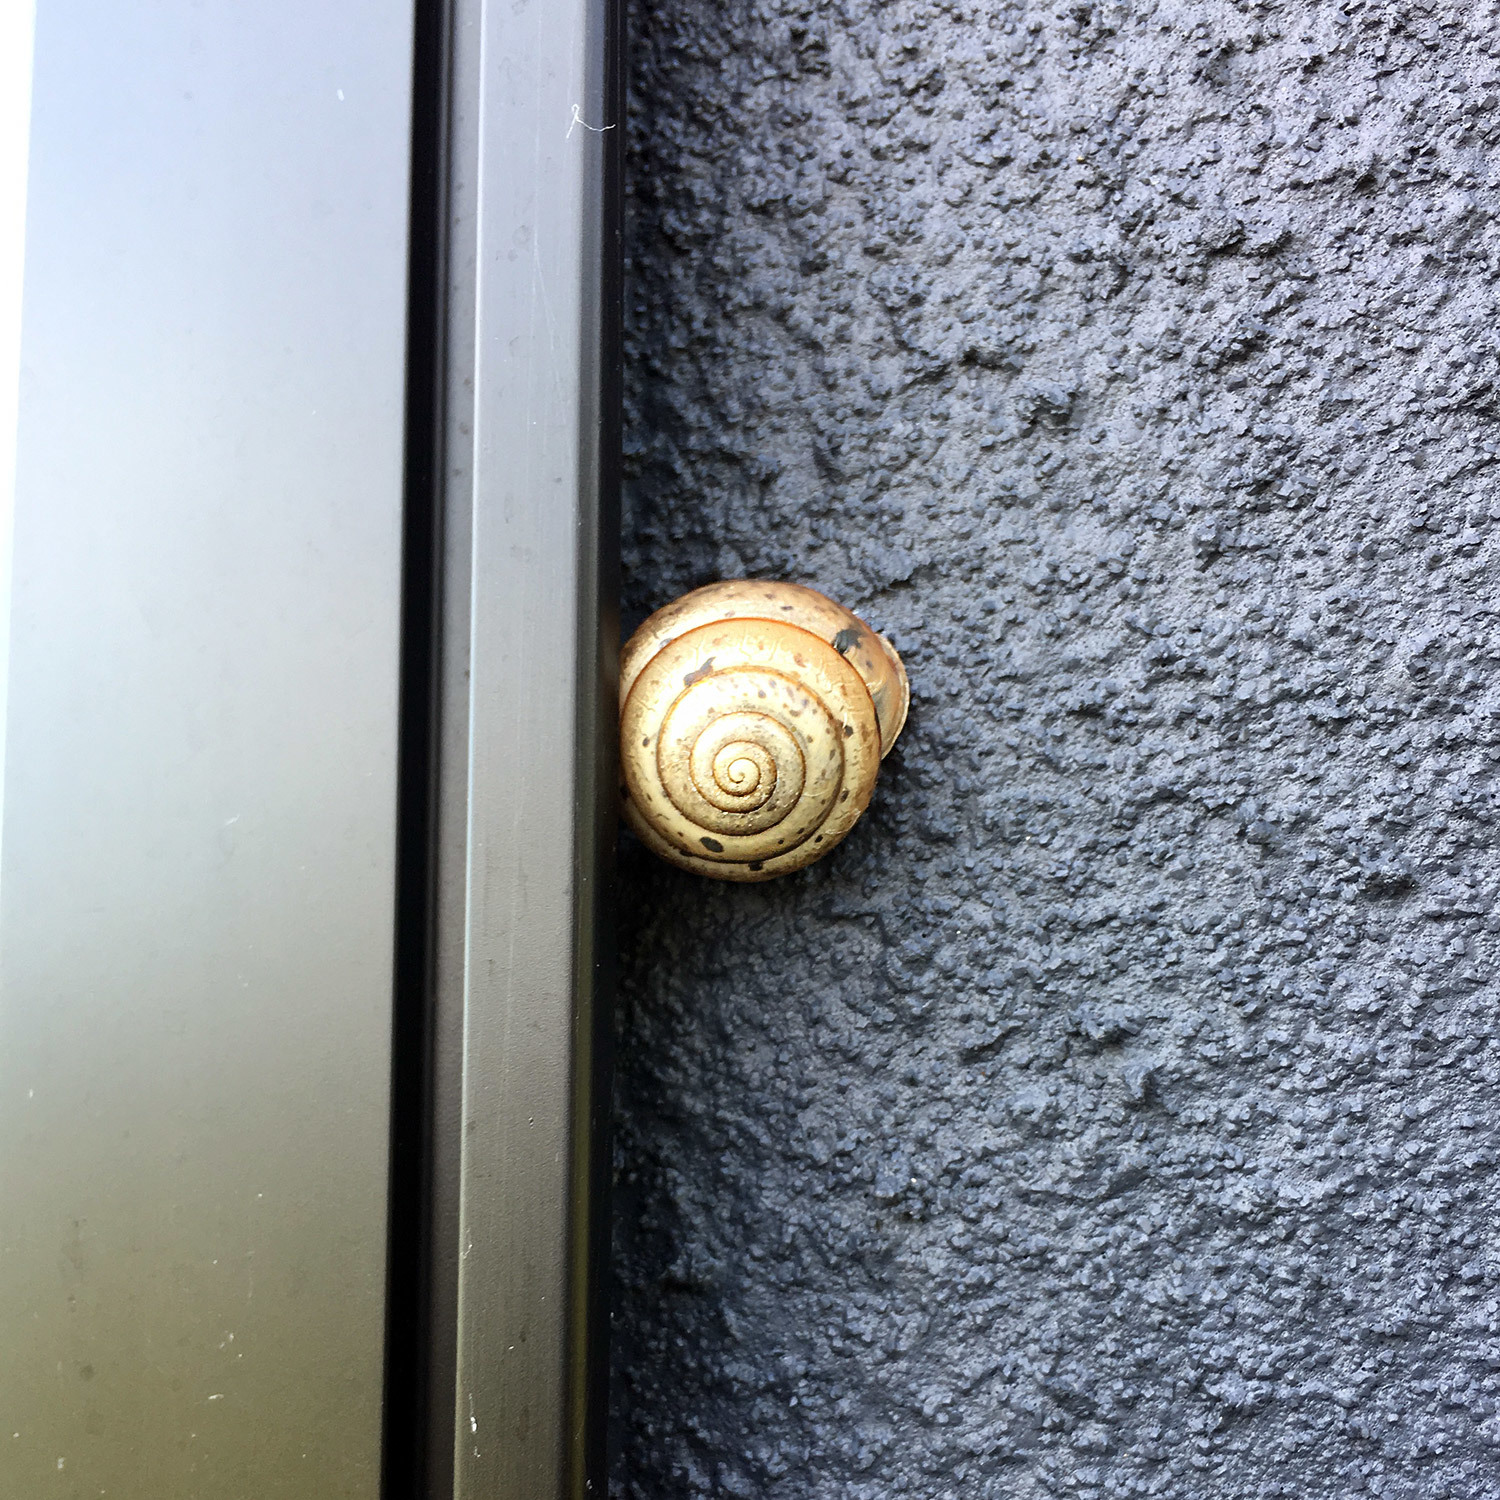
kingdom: Animalia
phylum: Mollusca
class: Gastropoda
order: Stylommatophora
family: Camaenidae
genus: Satsuma
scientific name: Satsuma japonica
